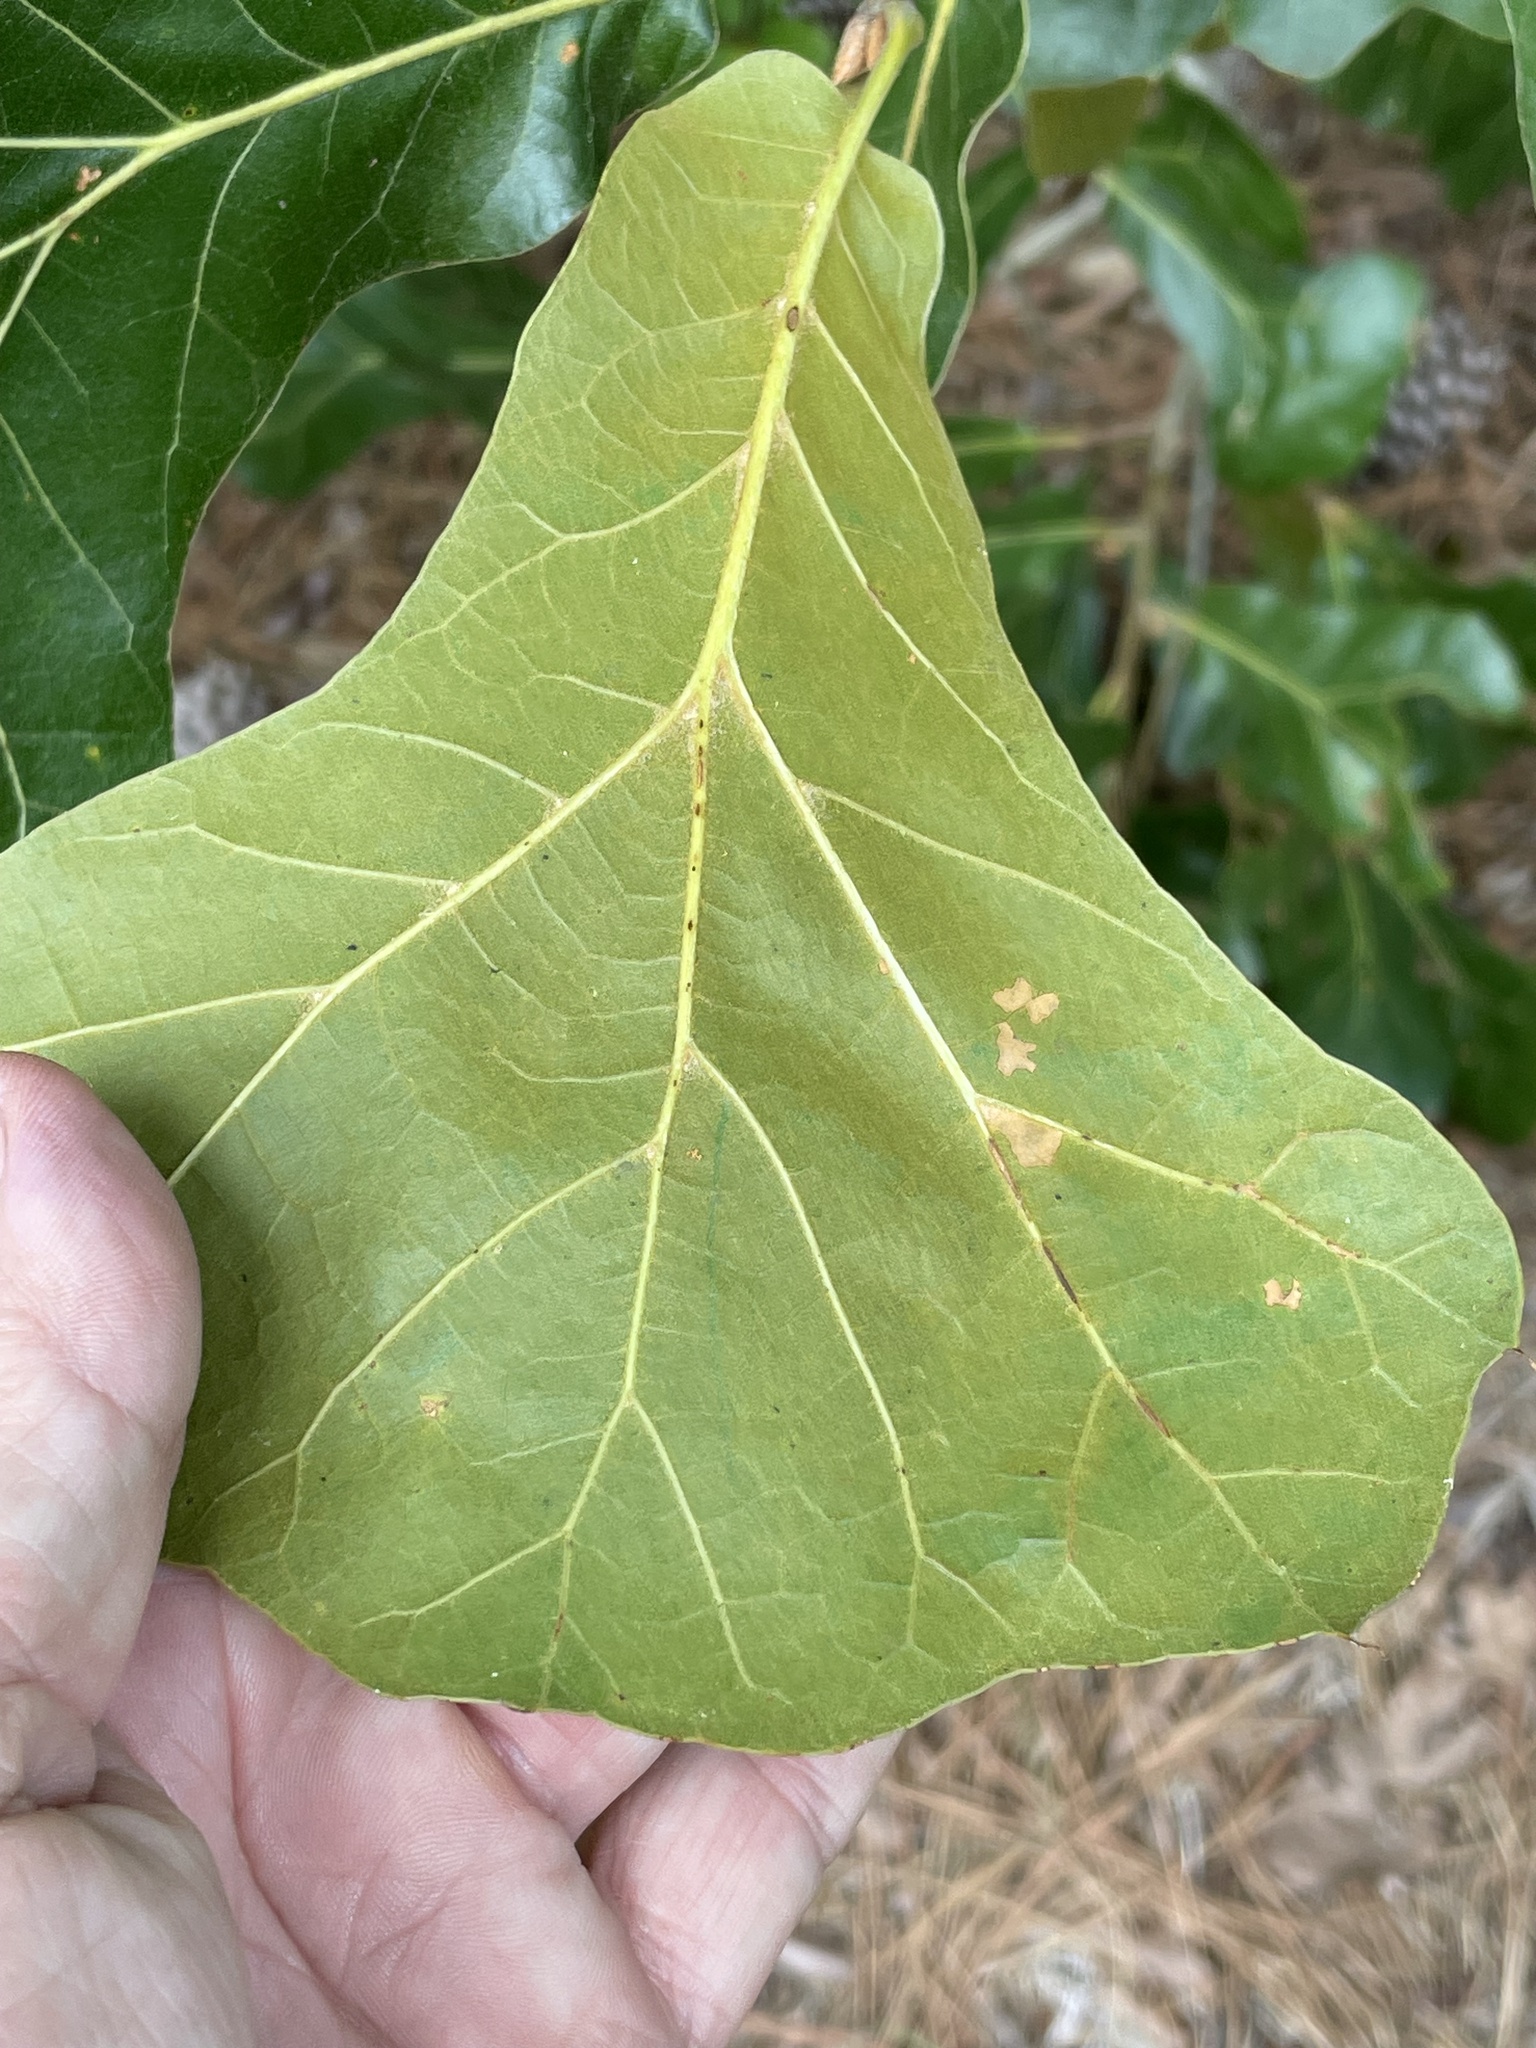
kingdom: Plantae
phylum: Tracheophyta
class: Magnoliopsida
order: Fagales
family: Fagaceae
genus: Quercus
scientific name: Quercus marilandica
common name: Blackjack oak
